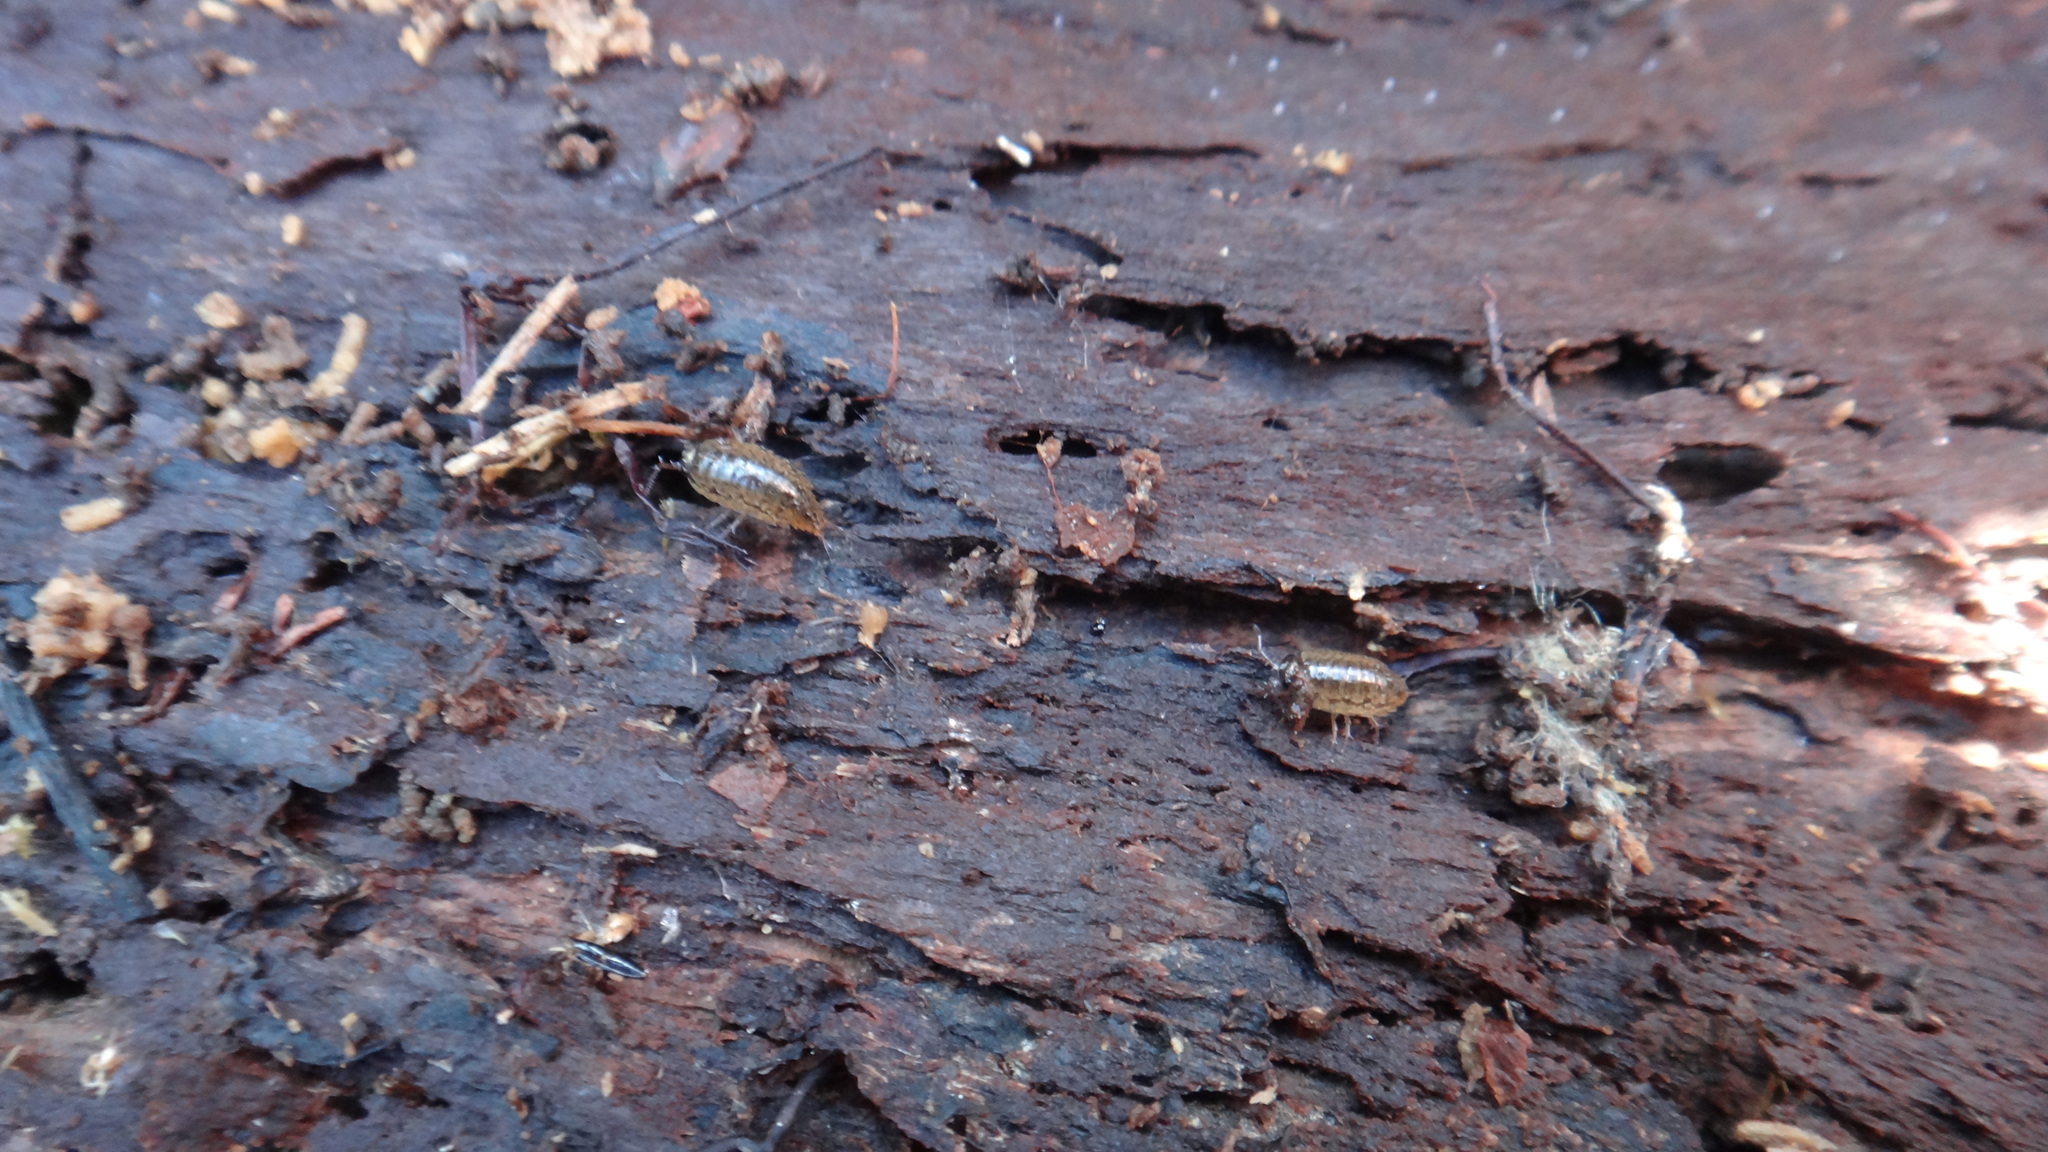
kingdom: Animalia
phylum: Arthropoda
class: Malacostraca
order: Isopoda
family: Ligiidae
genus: Ligidium
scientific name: Ligidium hypnorum
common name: Moss slater
